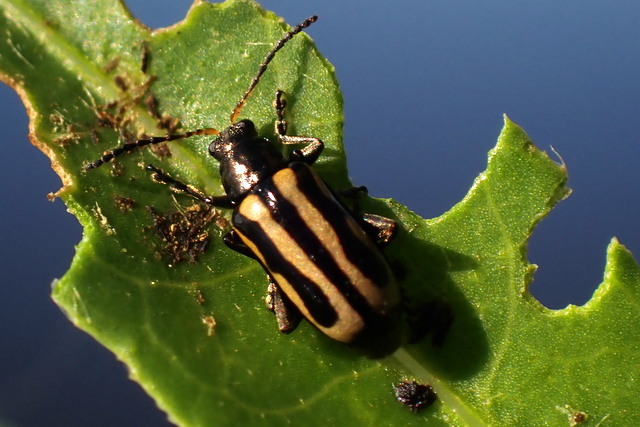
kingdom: Animalia
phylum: Arthropoda
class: Insecta
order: Coleoptera
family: Chrysomelidae
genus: Agasicles
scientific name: Agasicles hygrophila
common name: Alligatorweed flea beetle
